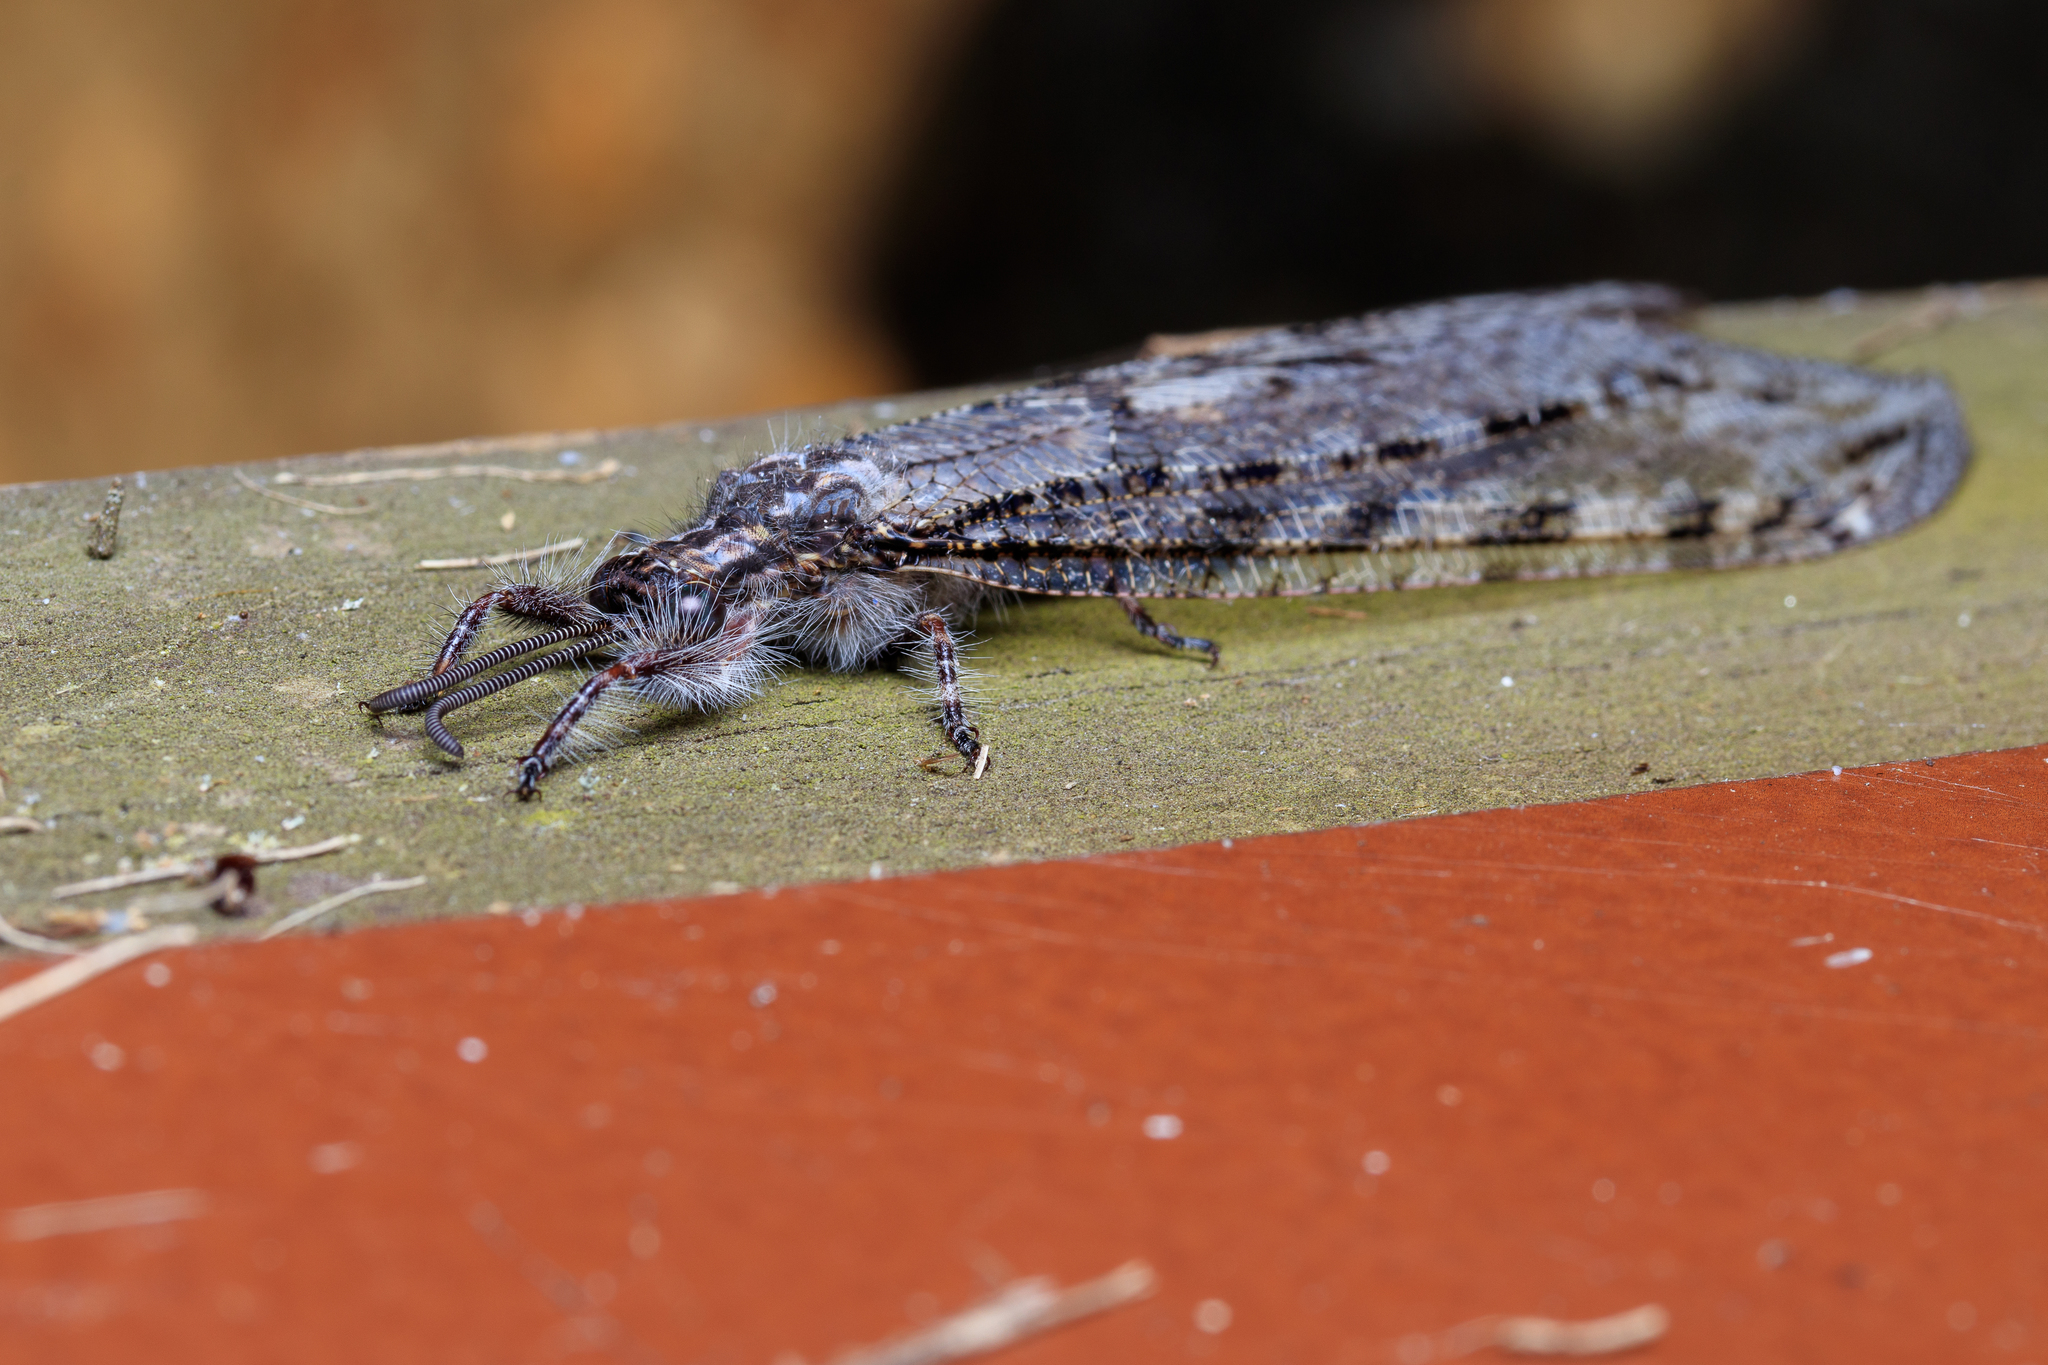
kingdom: Animalia
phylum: Arthropoda
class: Insecta
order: Neuroptera
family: Myrmeleontidae
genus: Vella
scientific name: Vella americana
